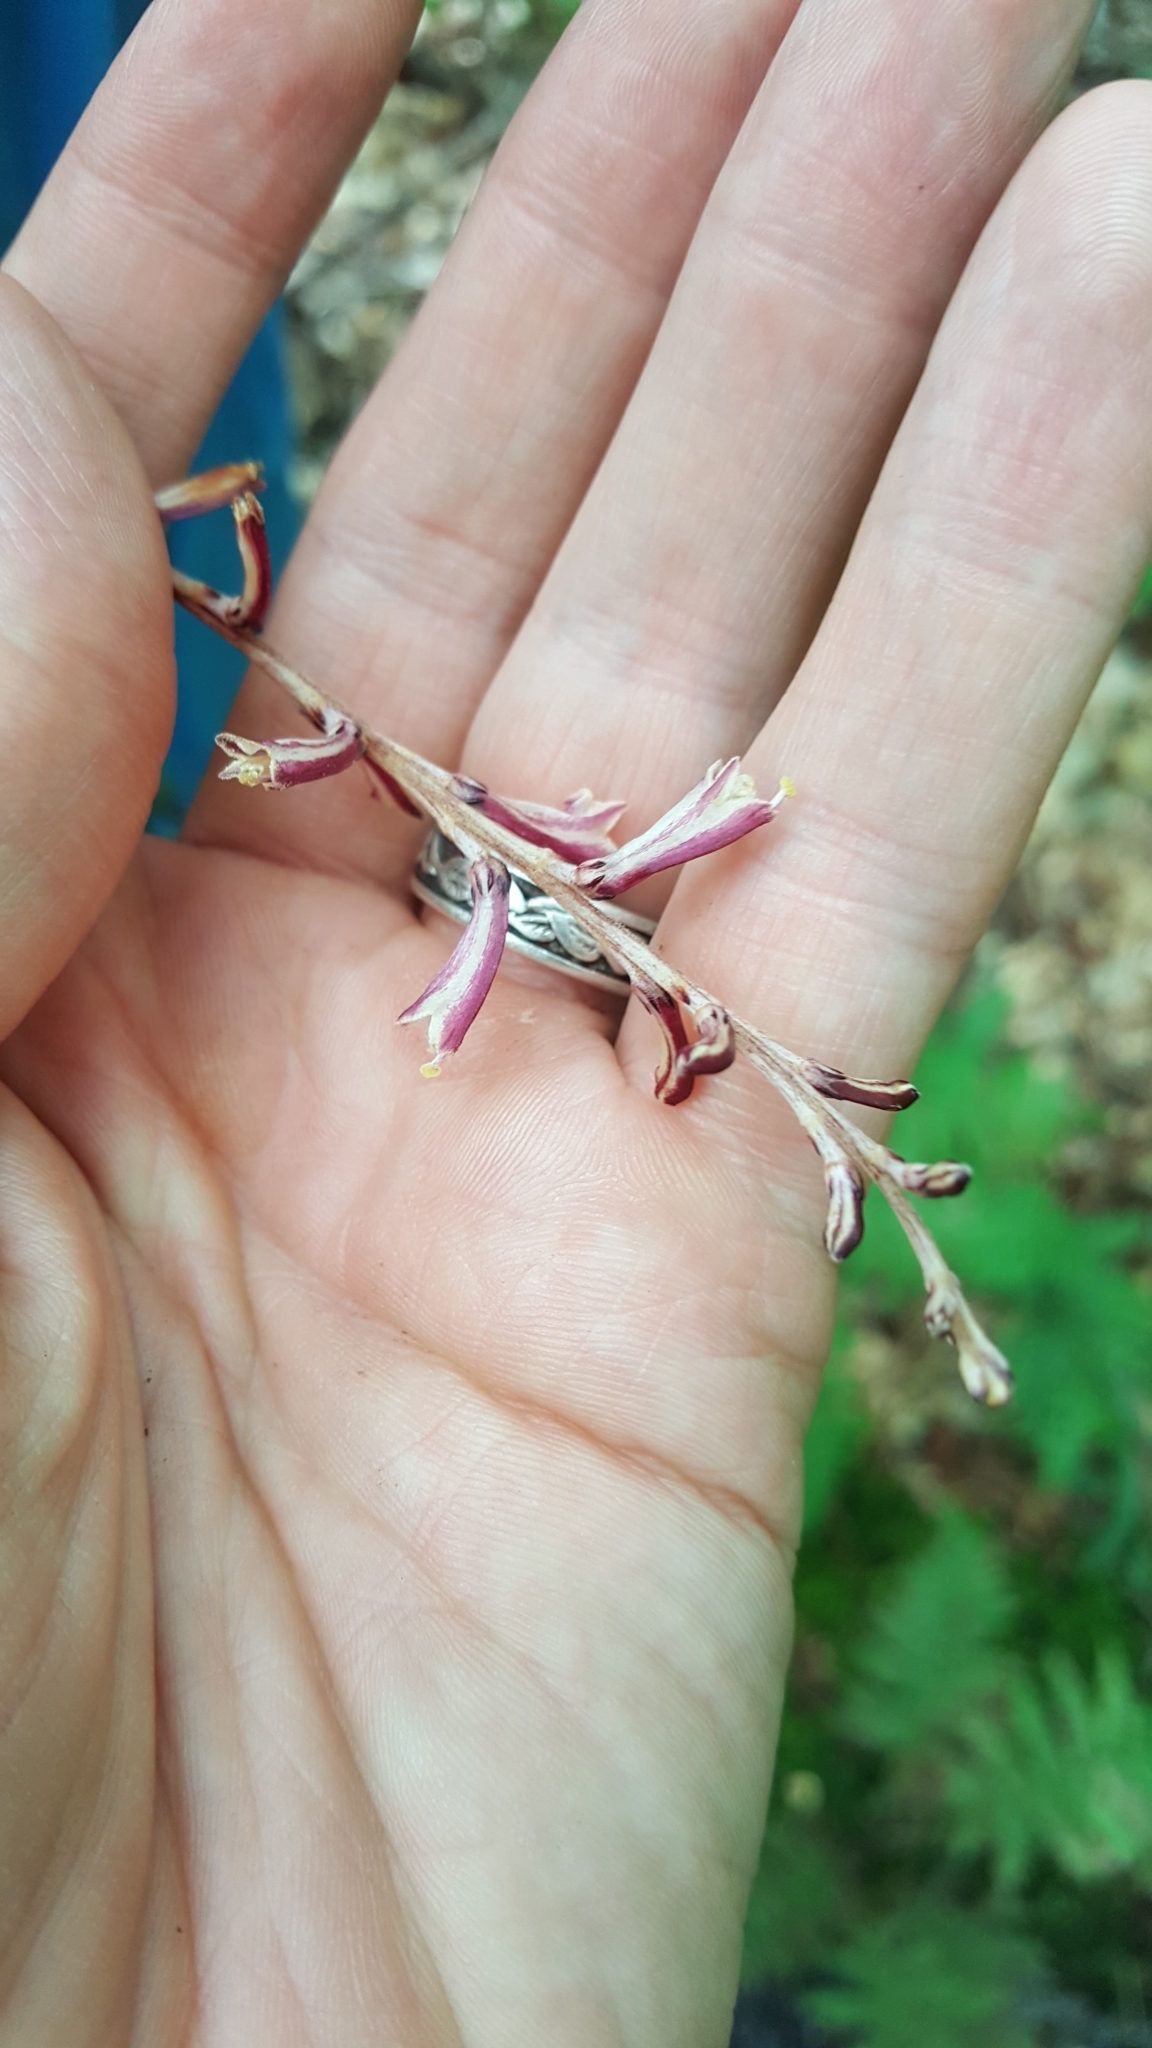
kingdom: Plantae
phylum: Tracheophyta
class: Magnoliopsida
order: Lamiales
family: Orobanchaceae
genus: Epifagus
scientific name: Epifagus virginiana
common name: Beechdrops
